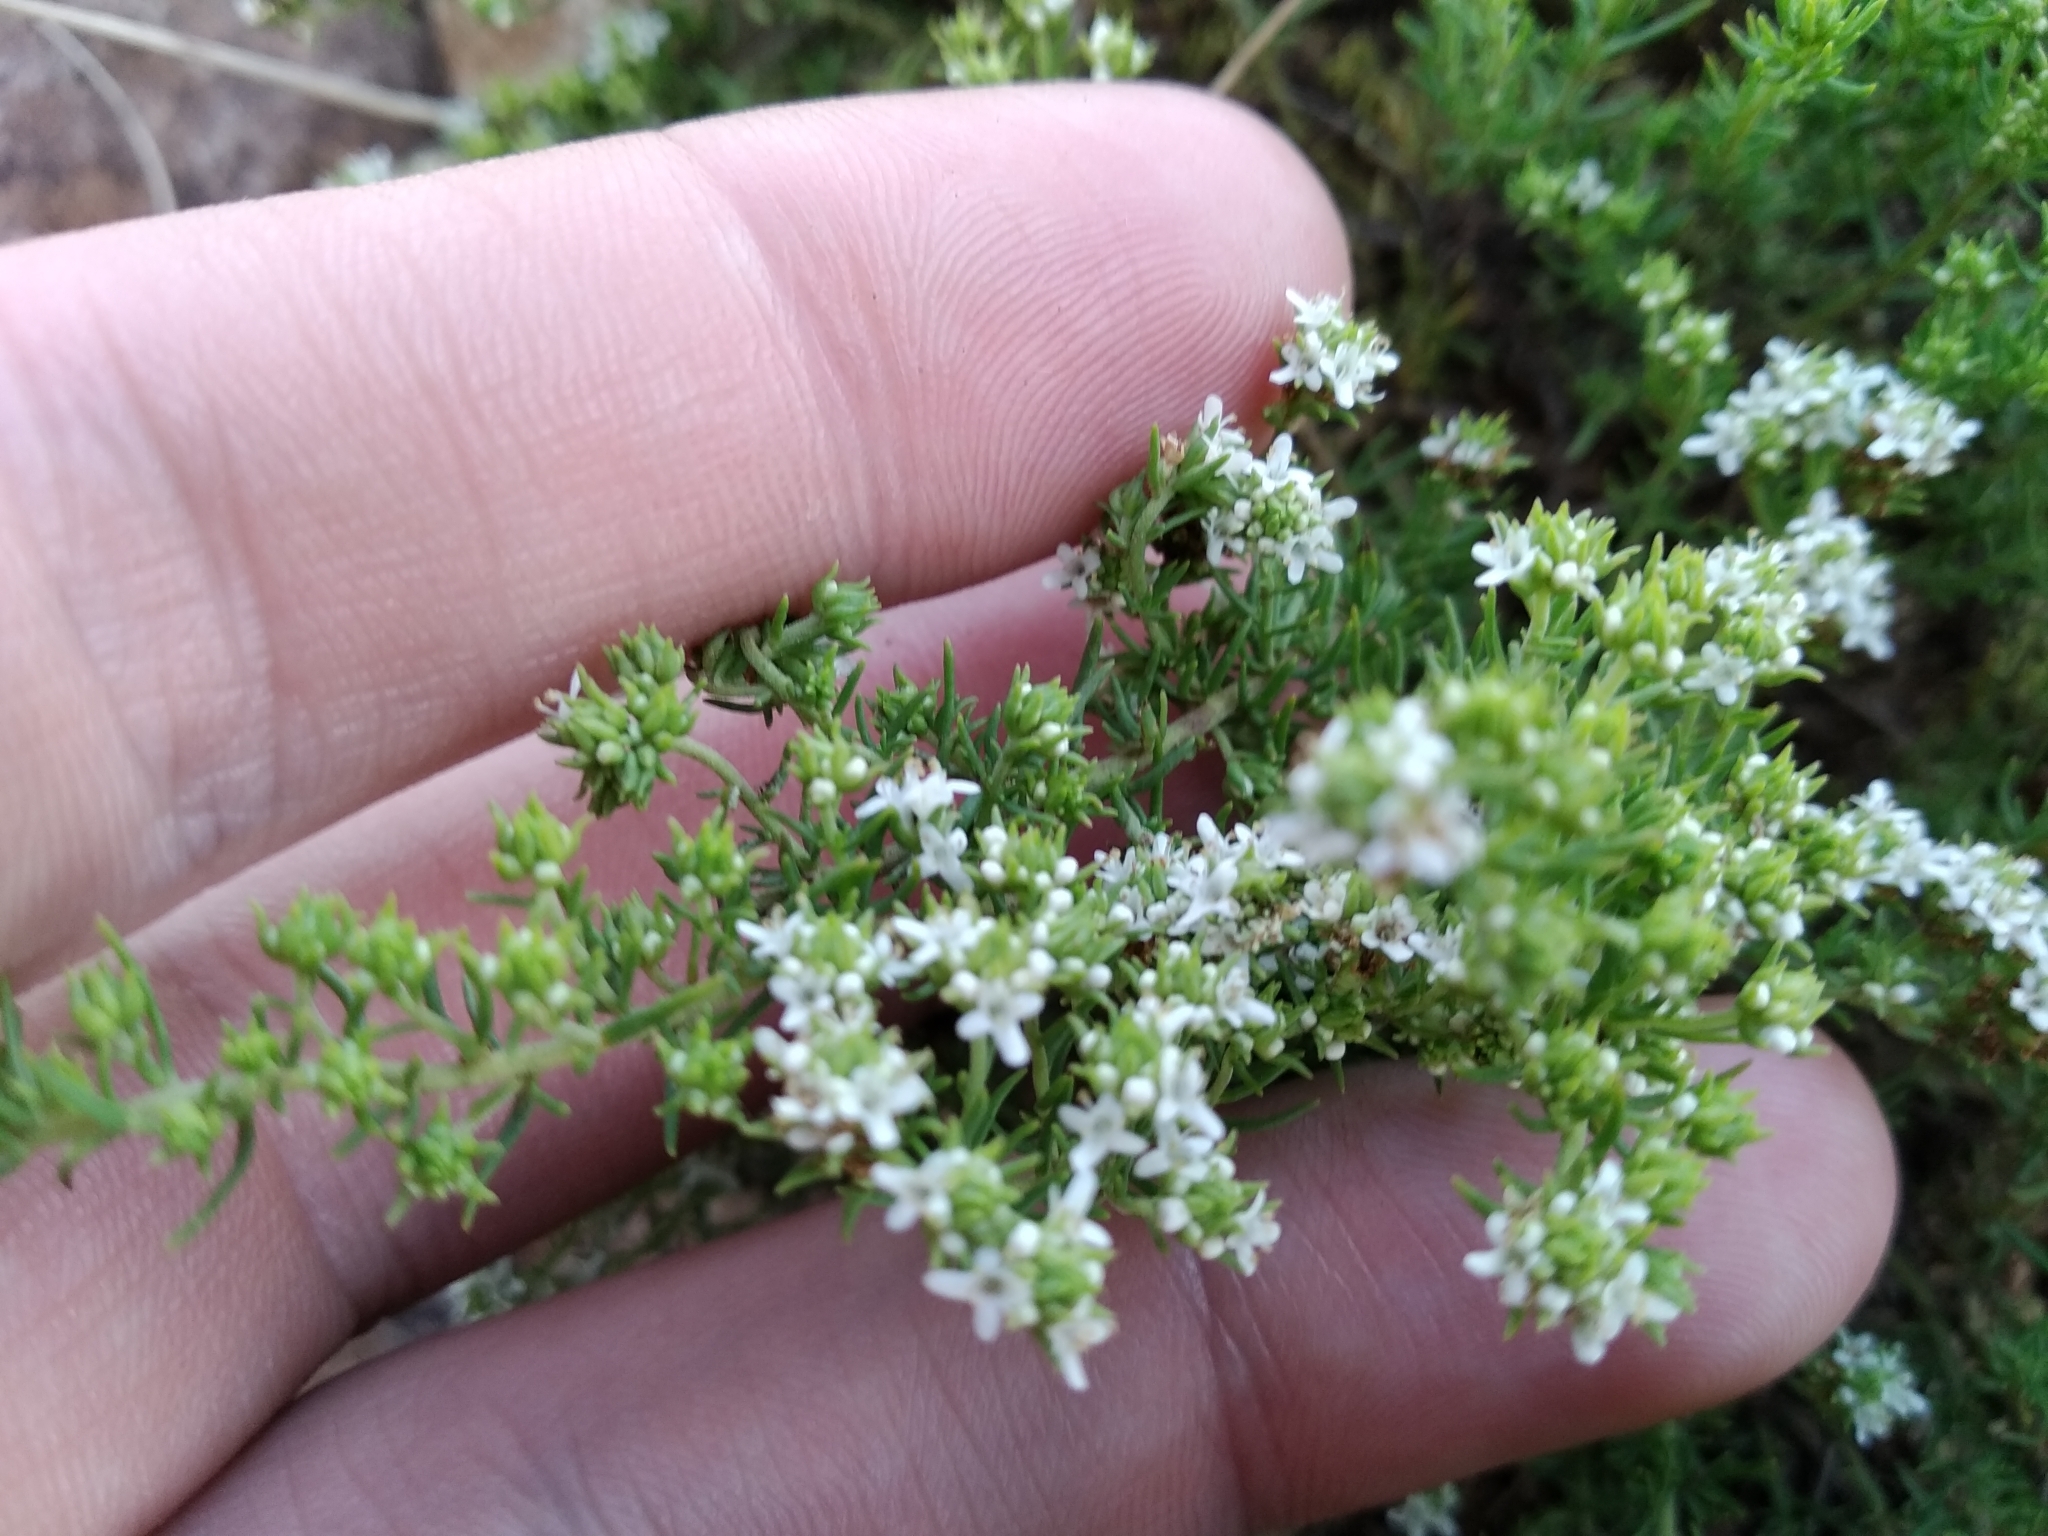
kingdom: Plantae
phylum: Tracheophyta
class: Magnoliopsida
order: Lamiales
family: Scrophulariaceae
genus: Selago
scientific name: Selago densiflora
